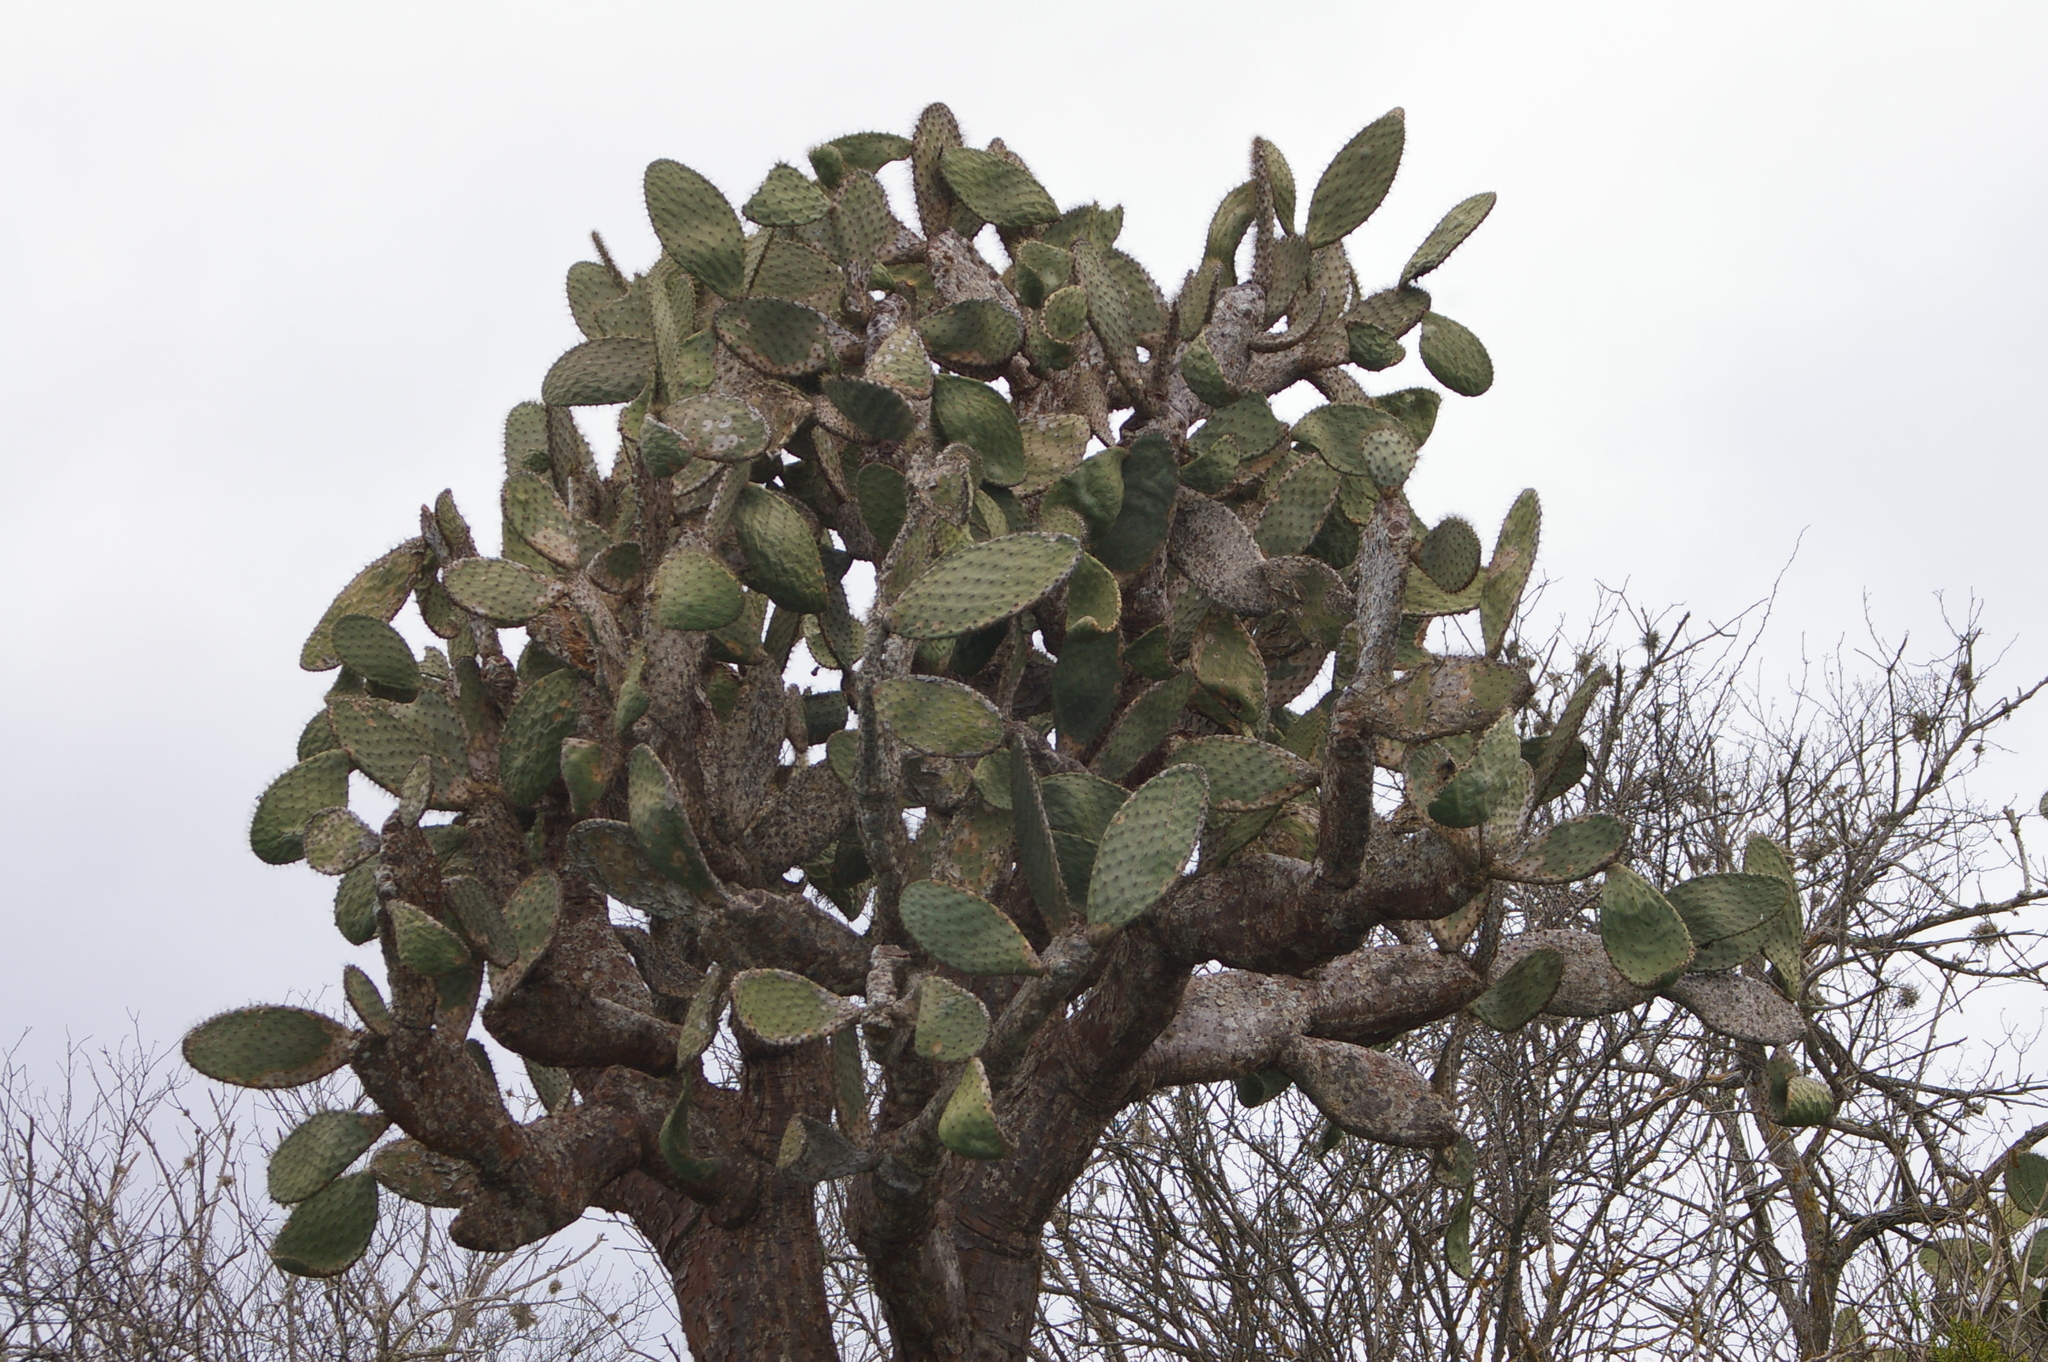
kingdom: Plantae
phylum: Tracheophyta
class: Magnoliopsida
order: Caryophyllales
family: Cactaceae
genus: Opuntia
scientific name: Opuntia galapageia
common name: Galápagos prickly pear
